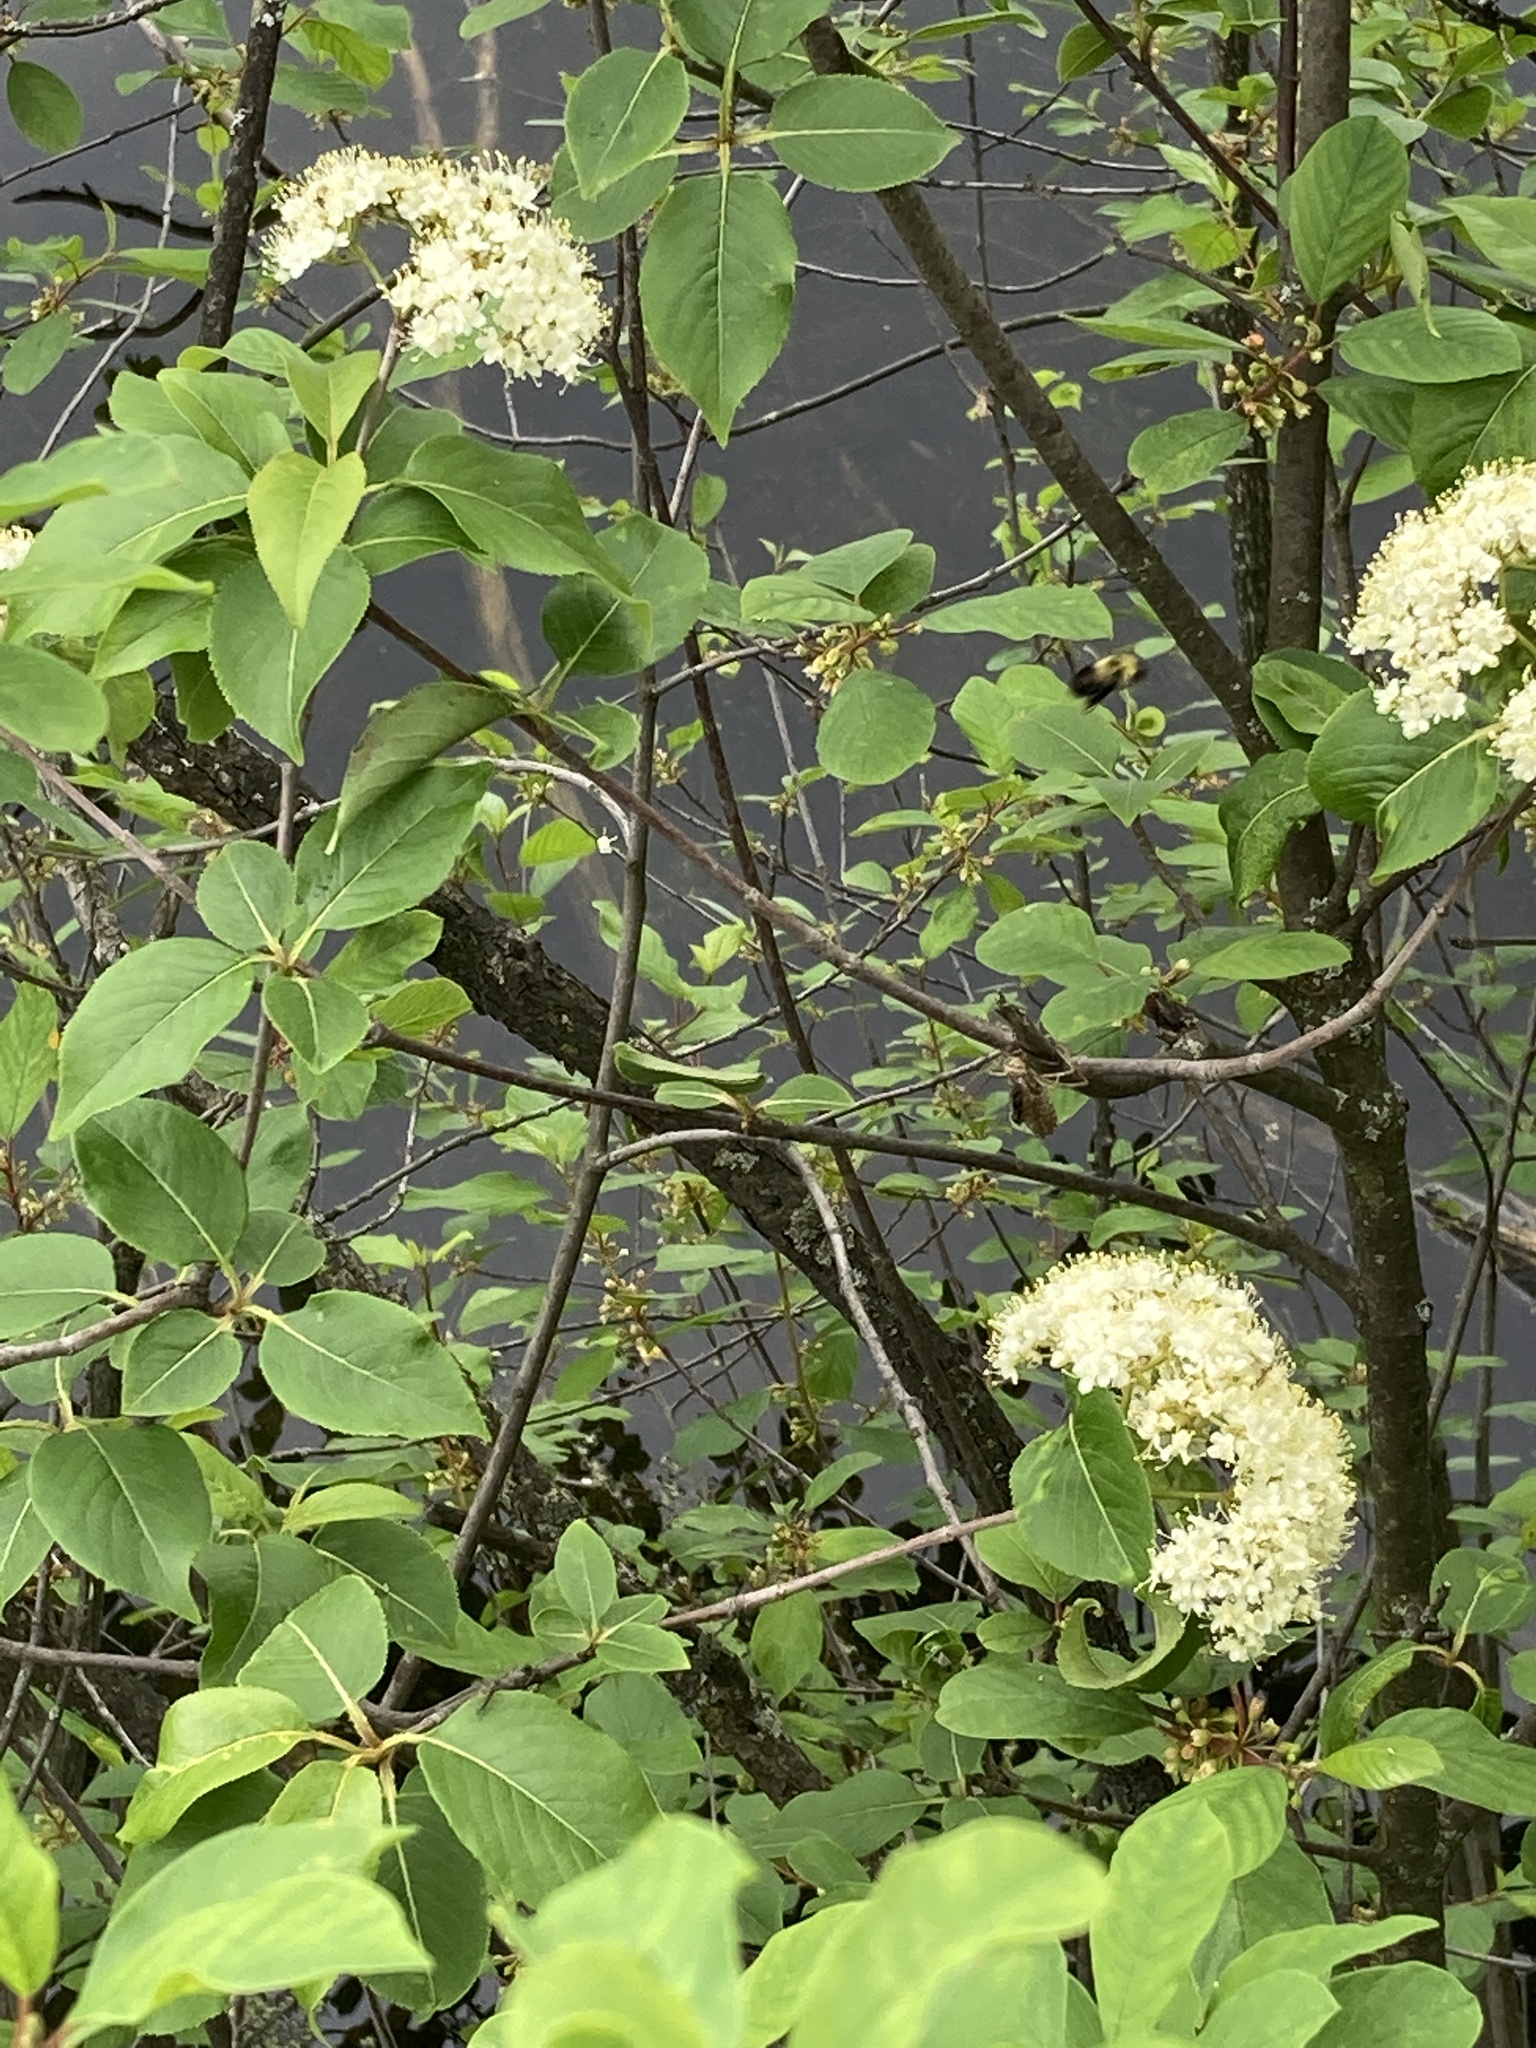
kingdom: Plantae
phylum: Tracheophyta
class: Magnoliopsida
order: Dipsacales
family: Viburnaceae
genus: Viburnum
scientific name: Viburnum lentago
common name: Black haw
